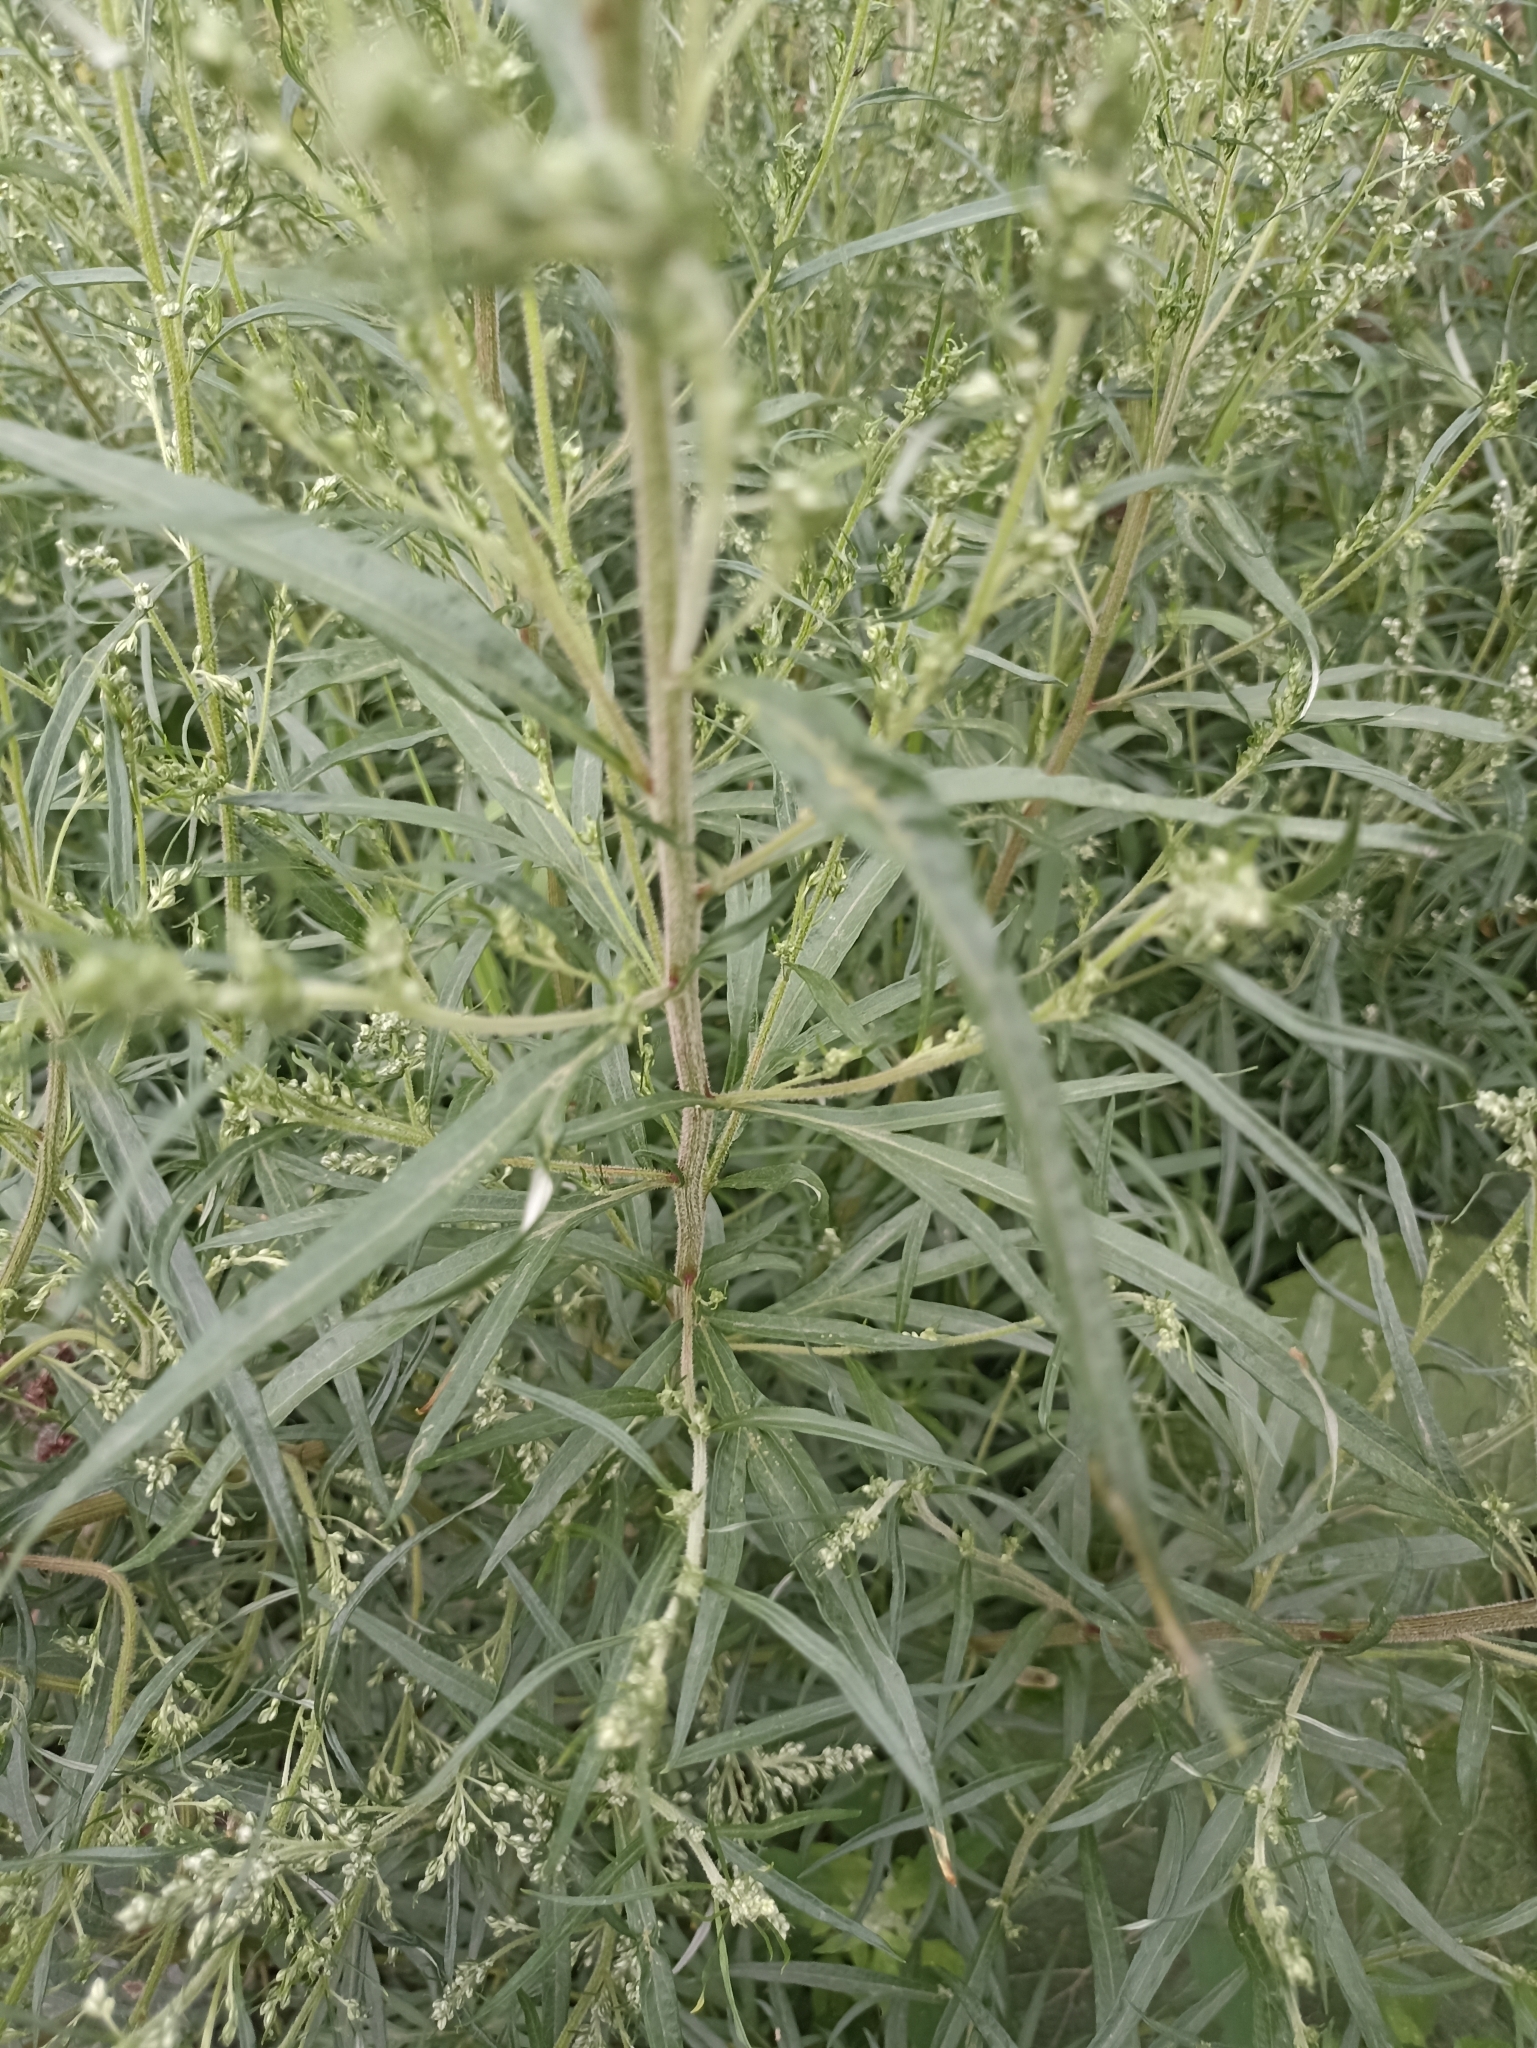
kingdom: Plantae
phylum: Tracheophyta
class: Magnoliopsida
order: Asterales
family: Asteraceae
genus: Artemisia
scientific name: Artemisia vulgaris
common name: Mugwort
